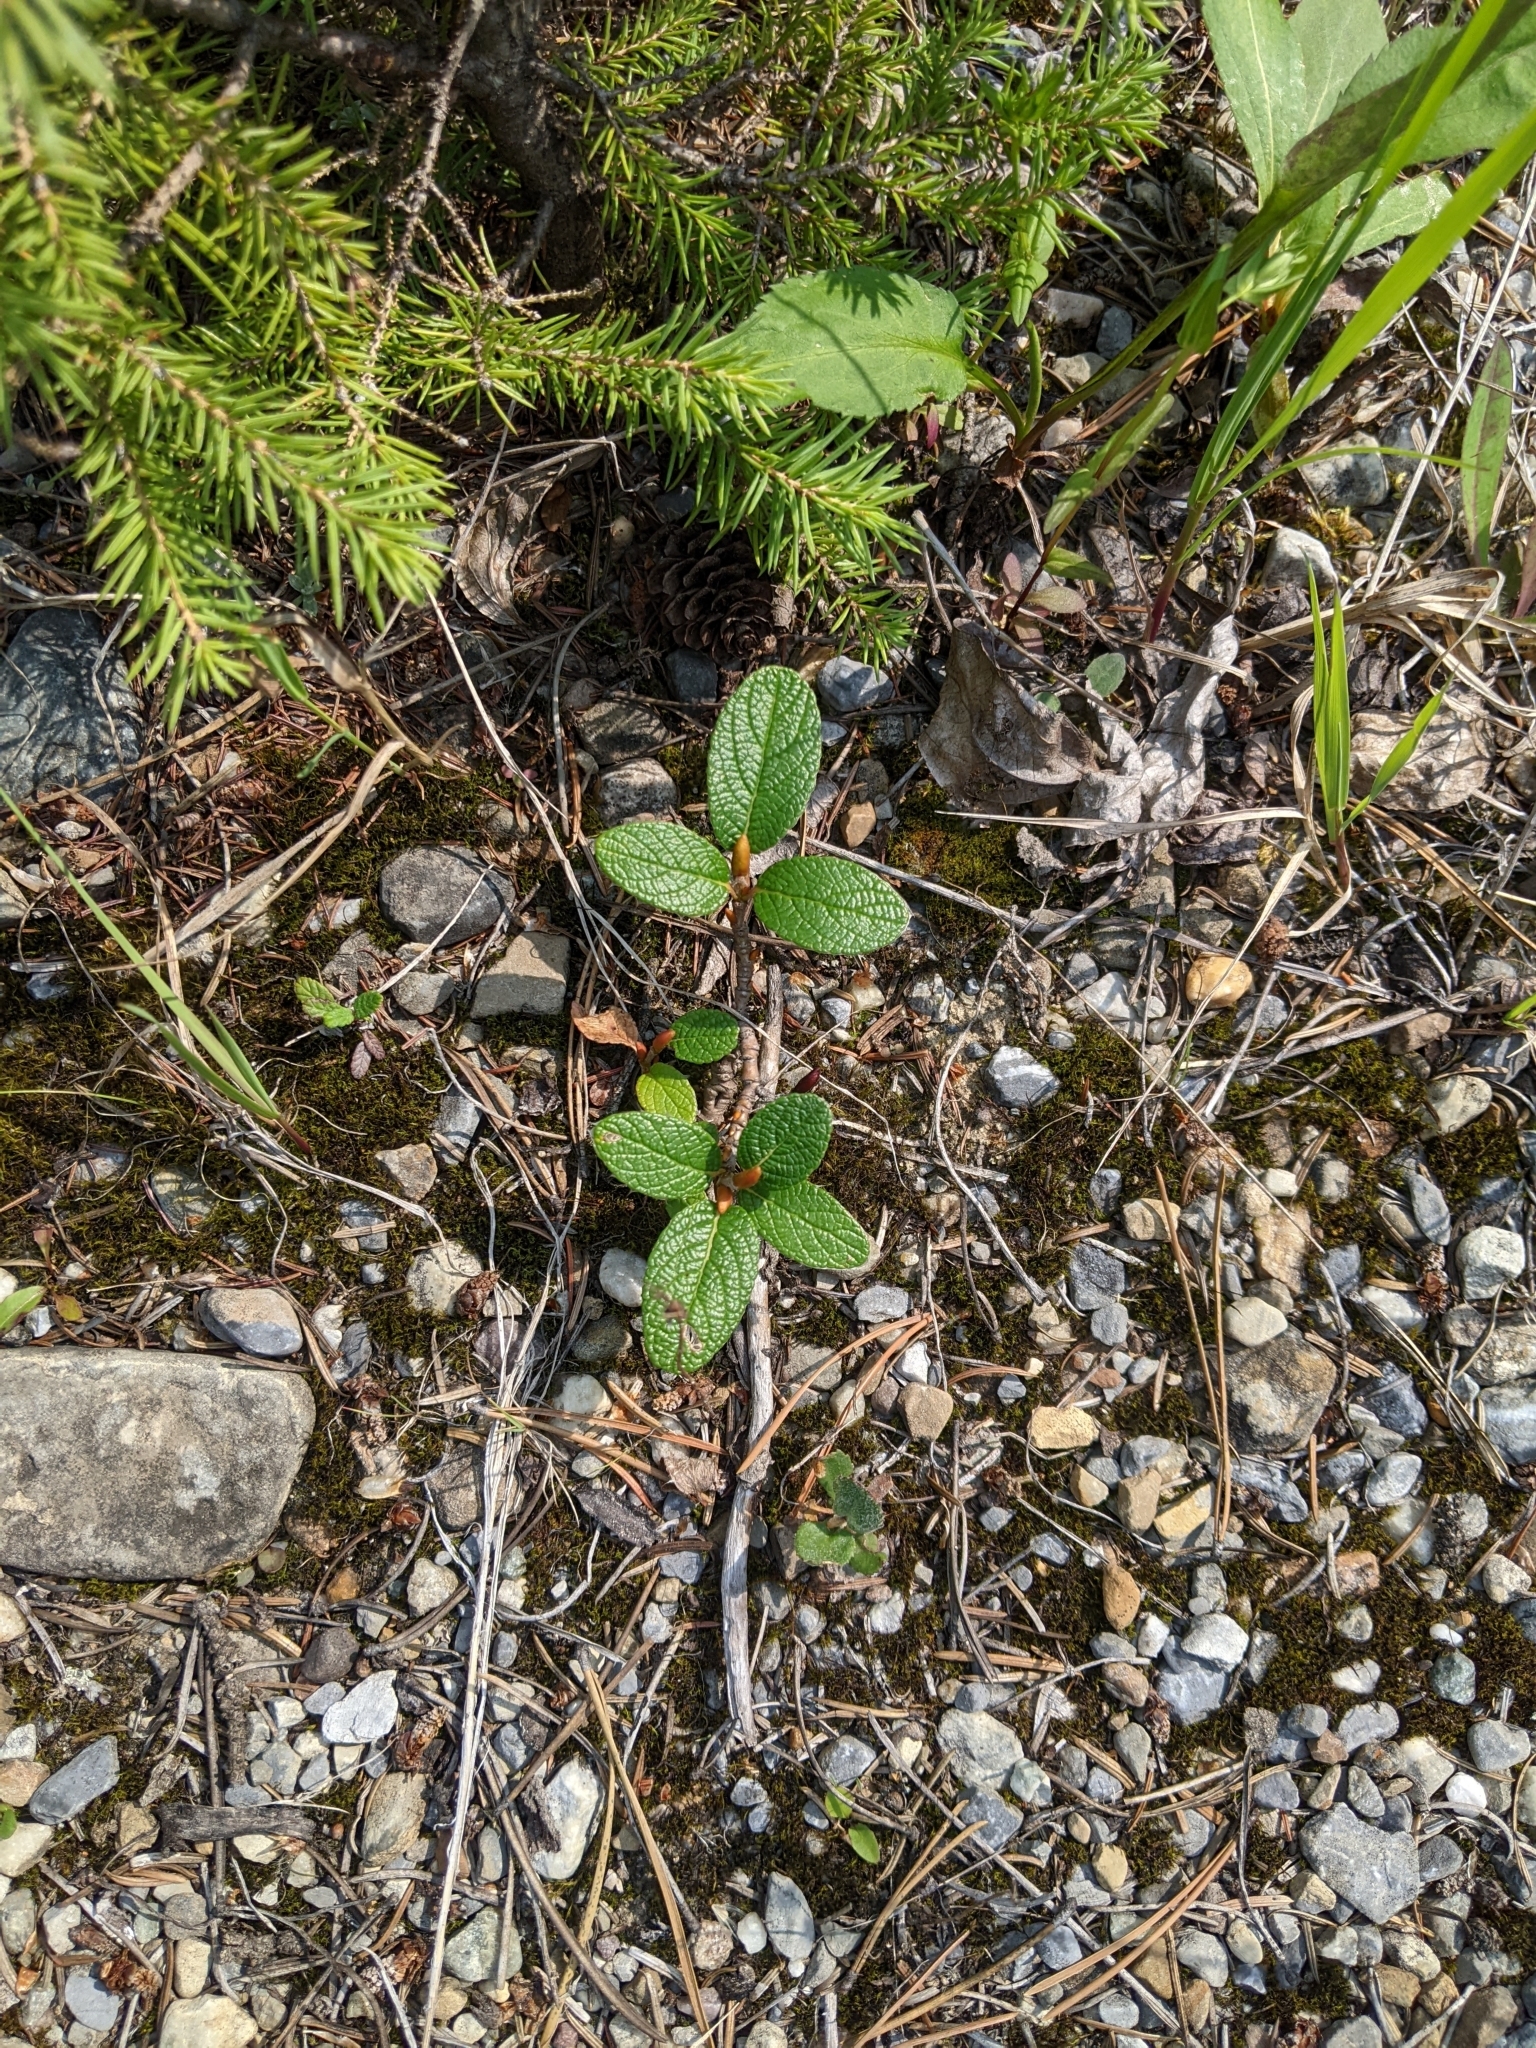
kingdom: Plantae
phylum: Tracheophyta
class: Magnoliopsida
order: Malpighiales
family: Salicaceae
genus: Salix
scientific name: Salix vestita
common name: Hairy willow
